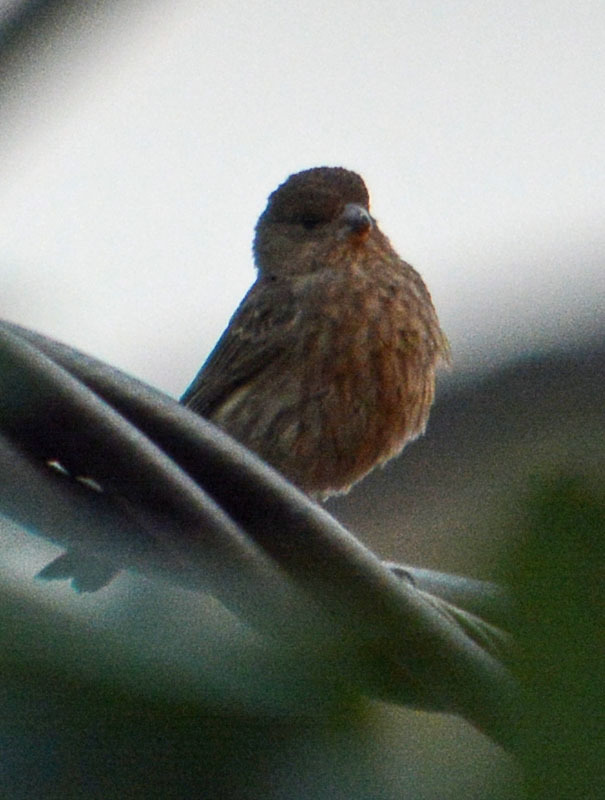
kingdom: Animalia
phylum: Chordata
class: Aves
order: Passeriformes
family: Fringillidae
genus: Haemorhous
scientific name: Haemorhous mexicanus
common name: House finch
